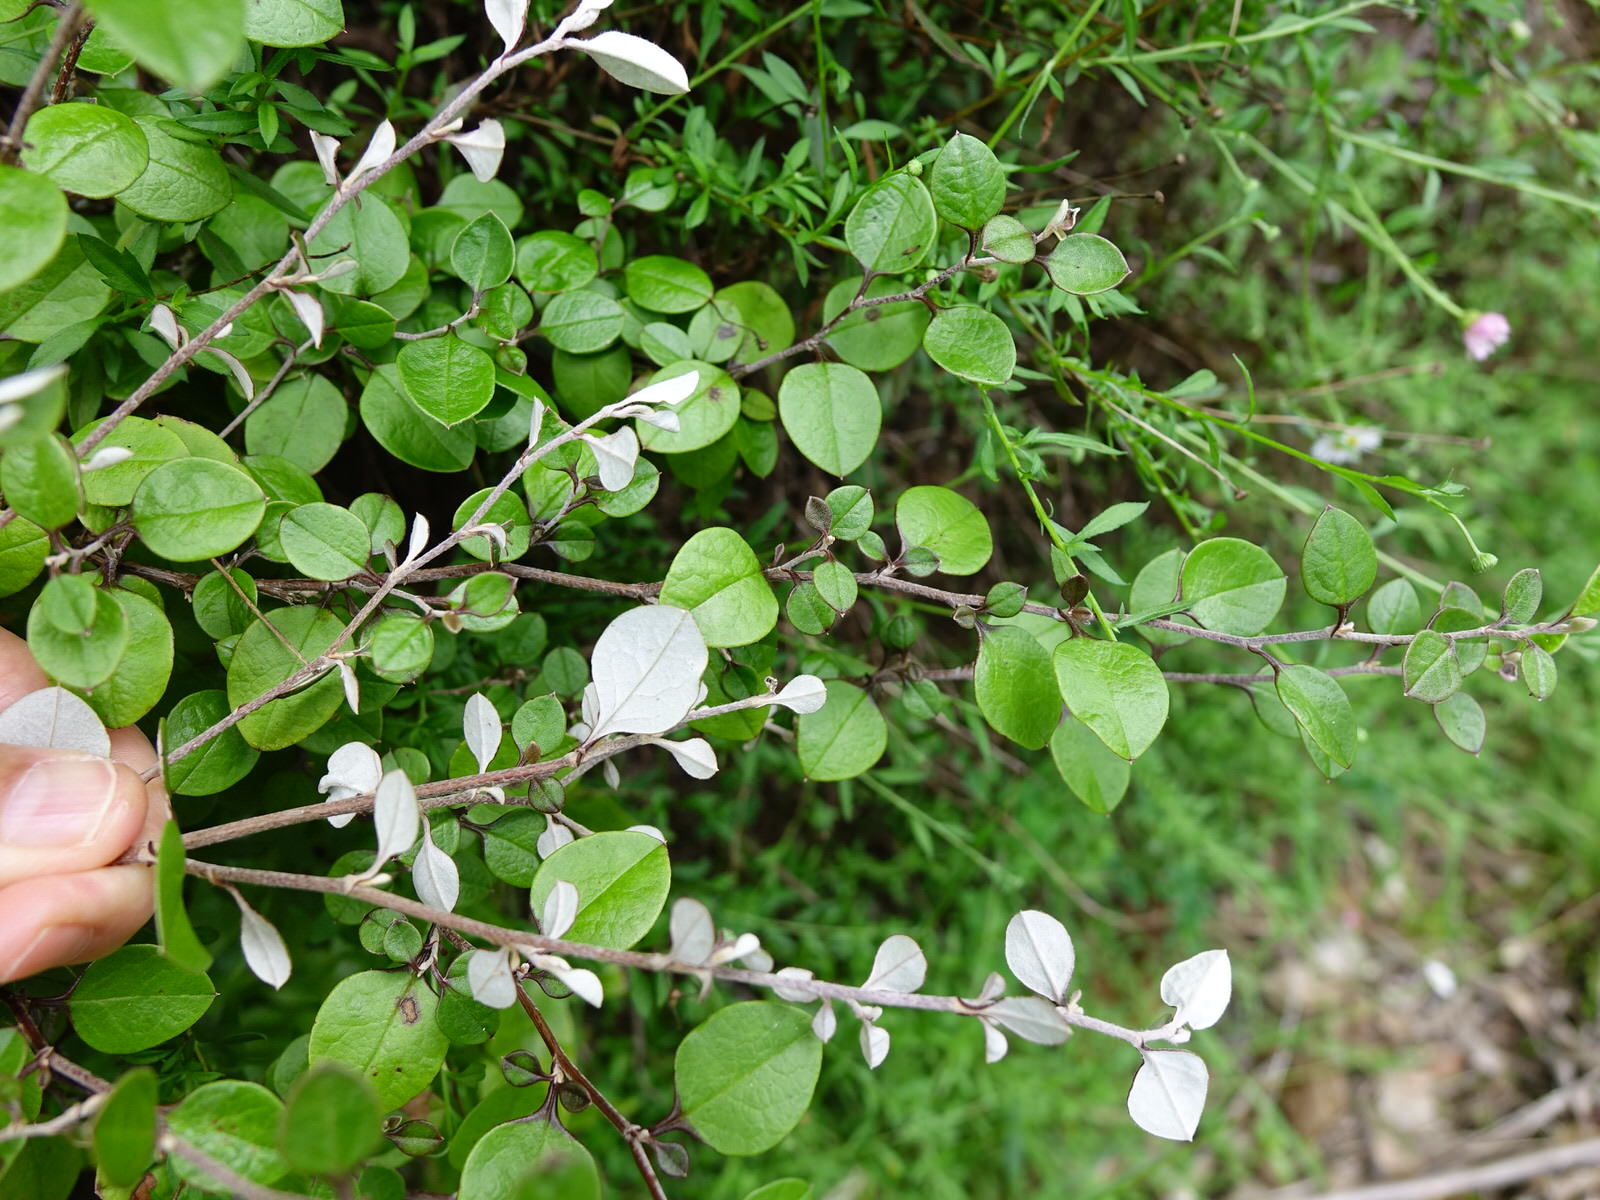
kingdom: Plantae
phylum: Tracheophyta
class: Magnoliopsida
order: Asterales
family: Asteraceae
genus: Ozothamnus
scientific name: Ozothamnus glomeratus
